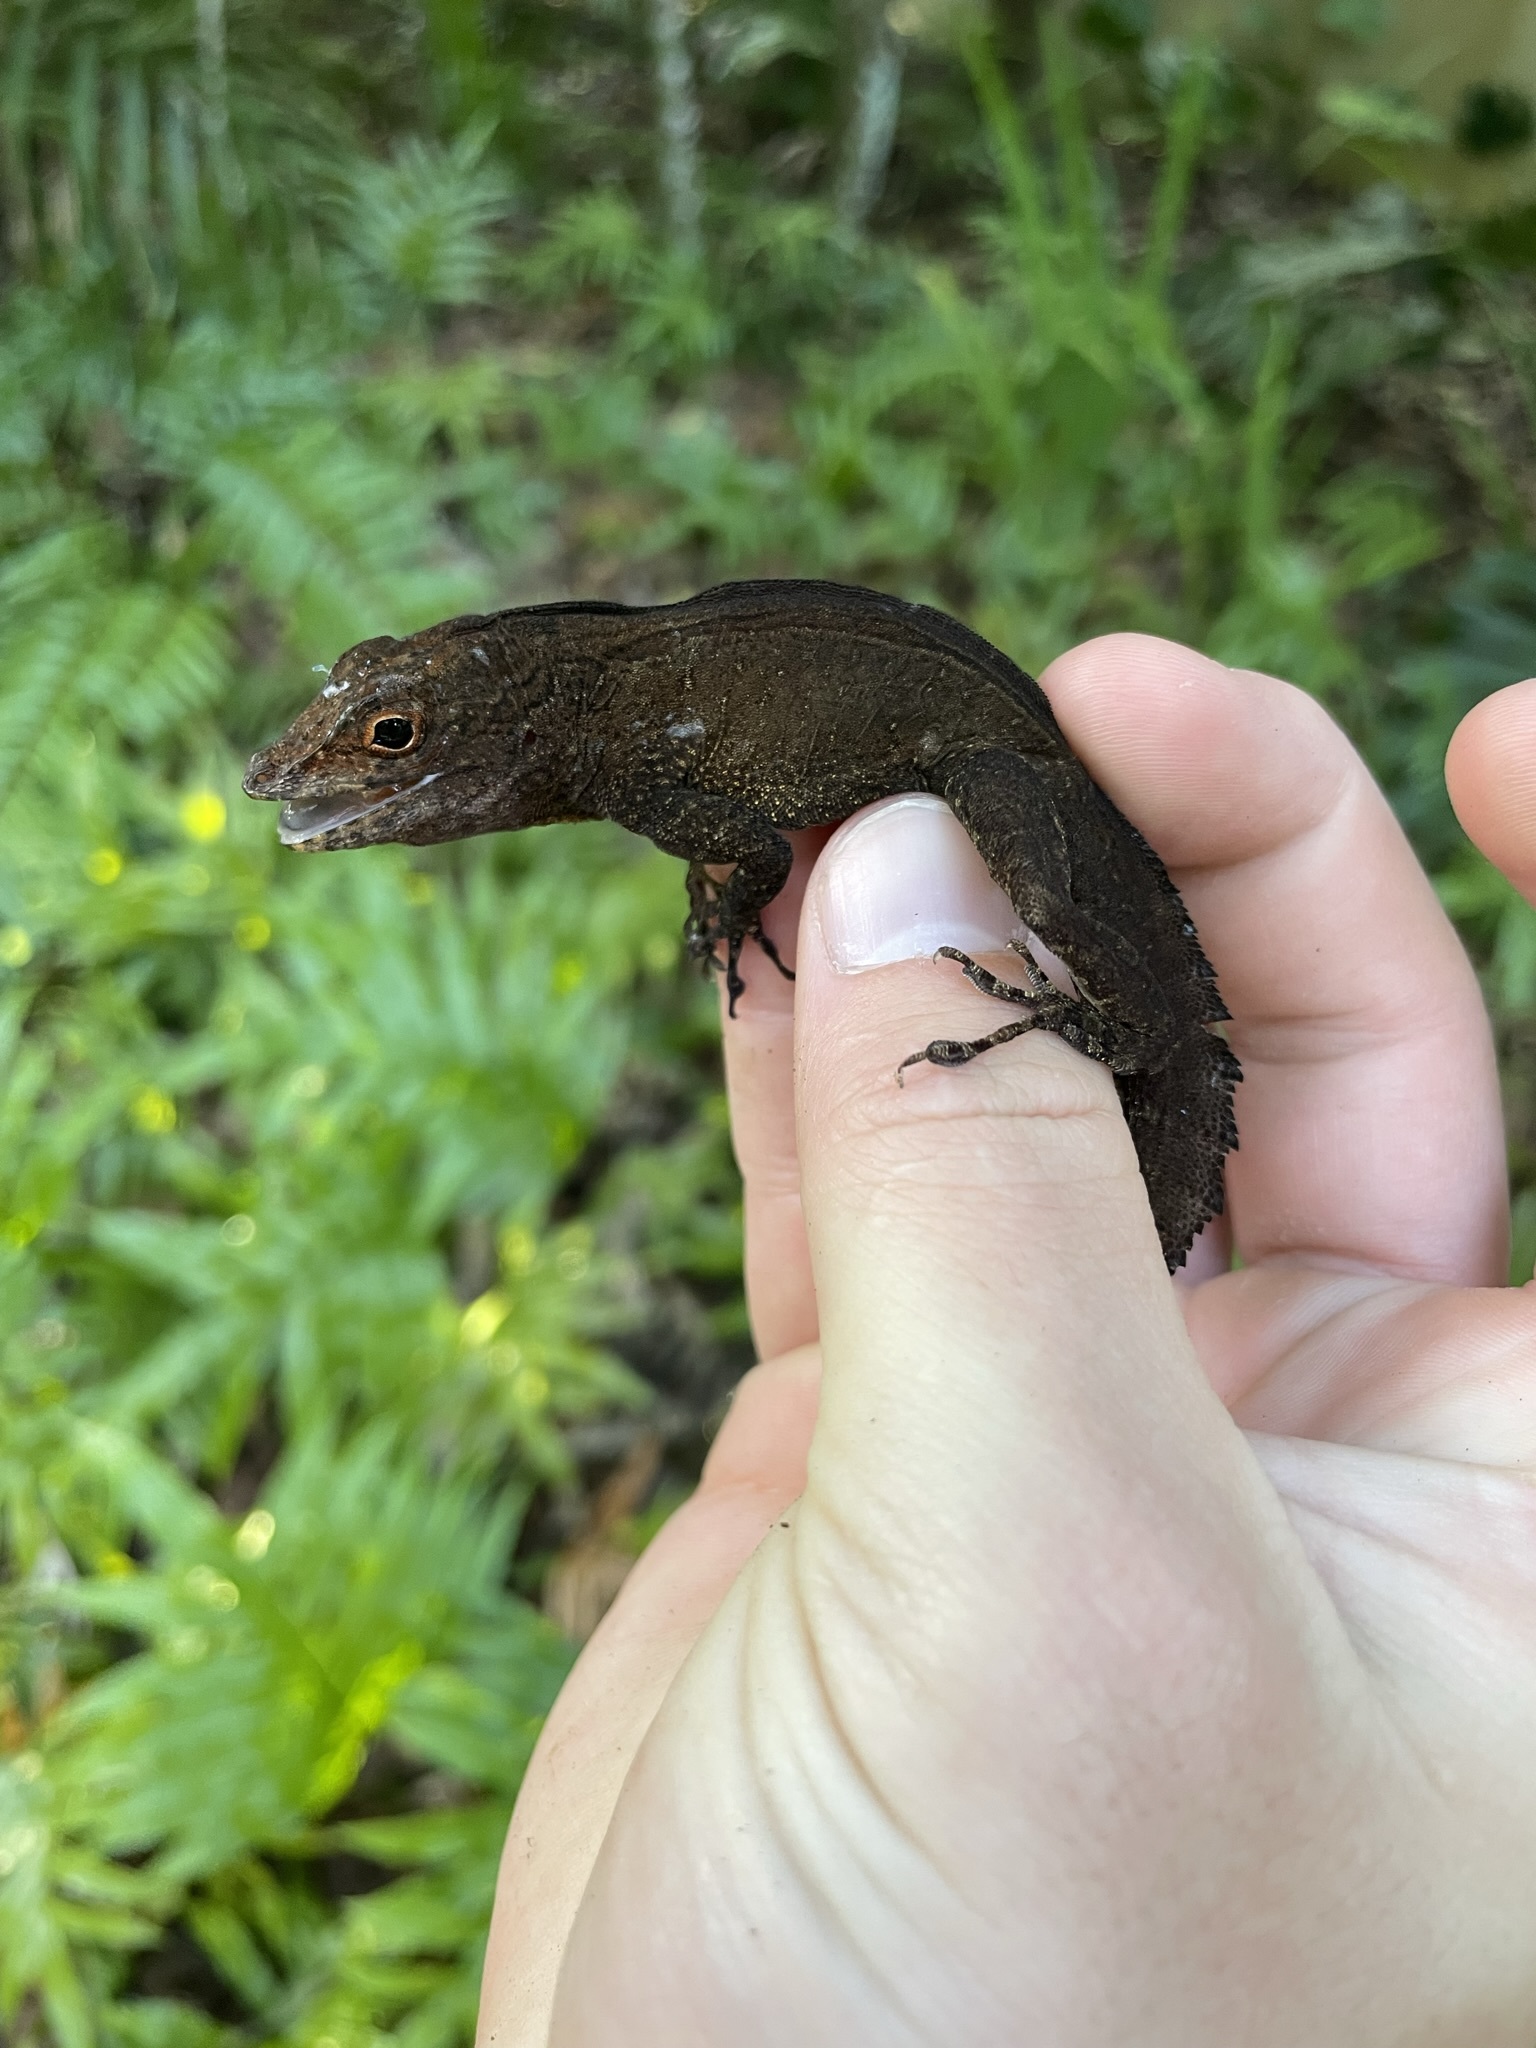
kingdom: Animalia
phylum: Chordata
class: Squamata
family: Dactyloidae
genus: Anolis
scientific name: Anolis cristatellus
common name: Crested anole
